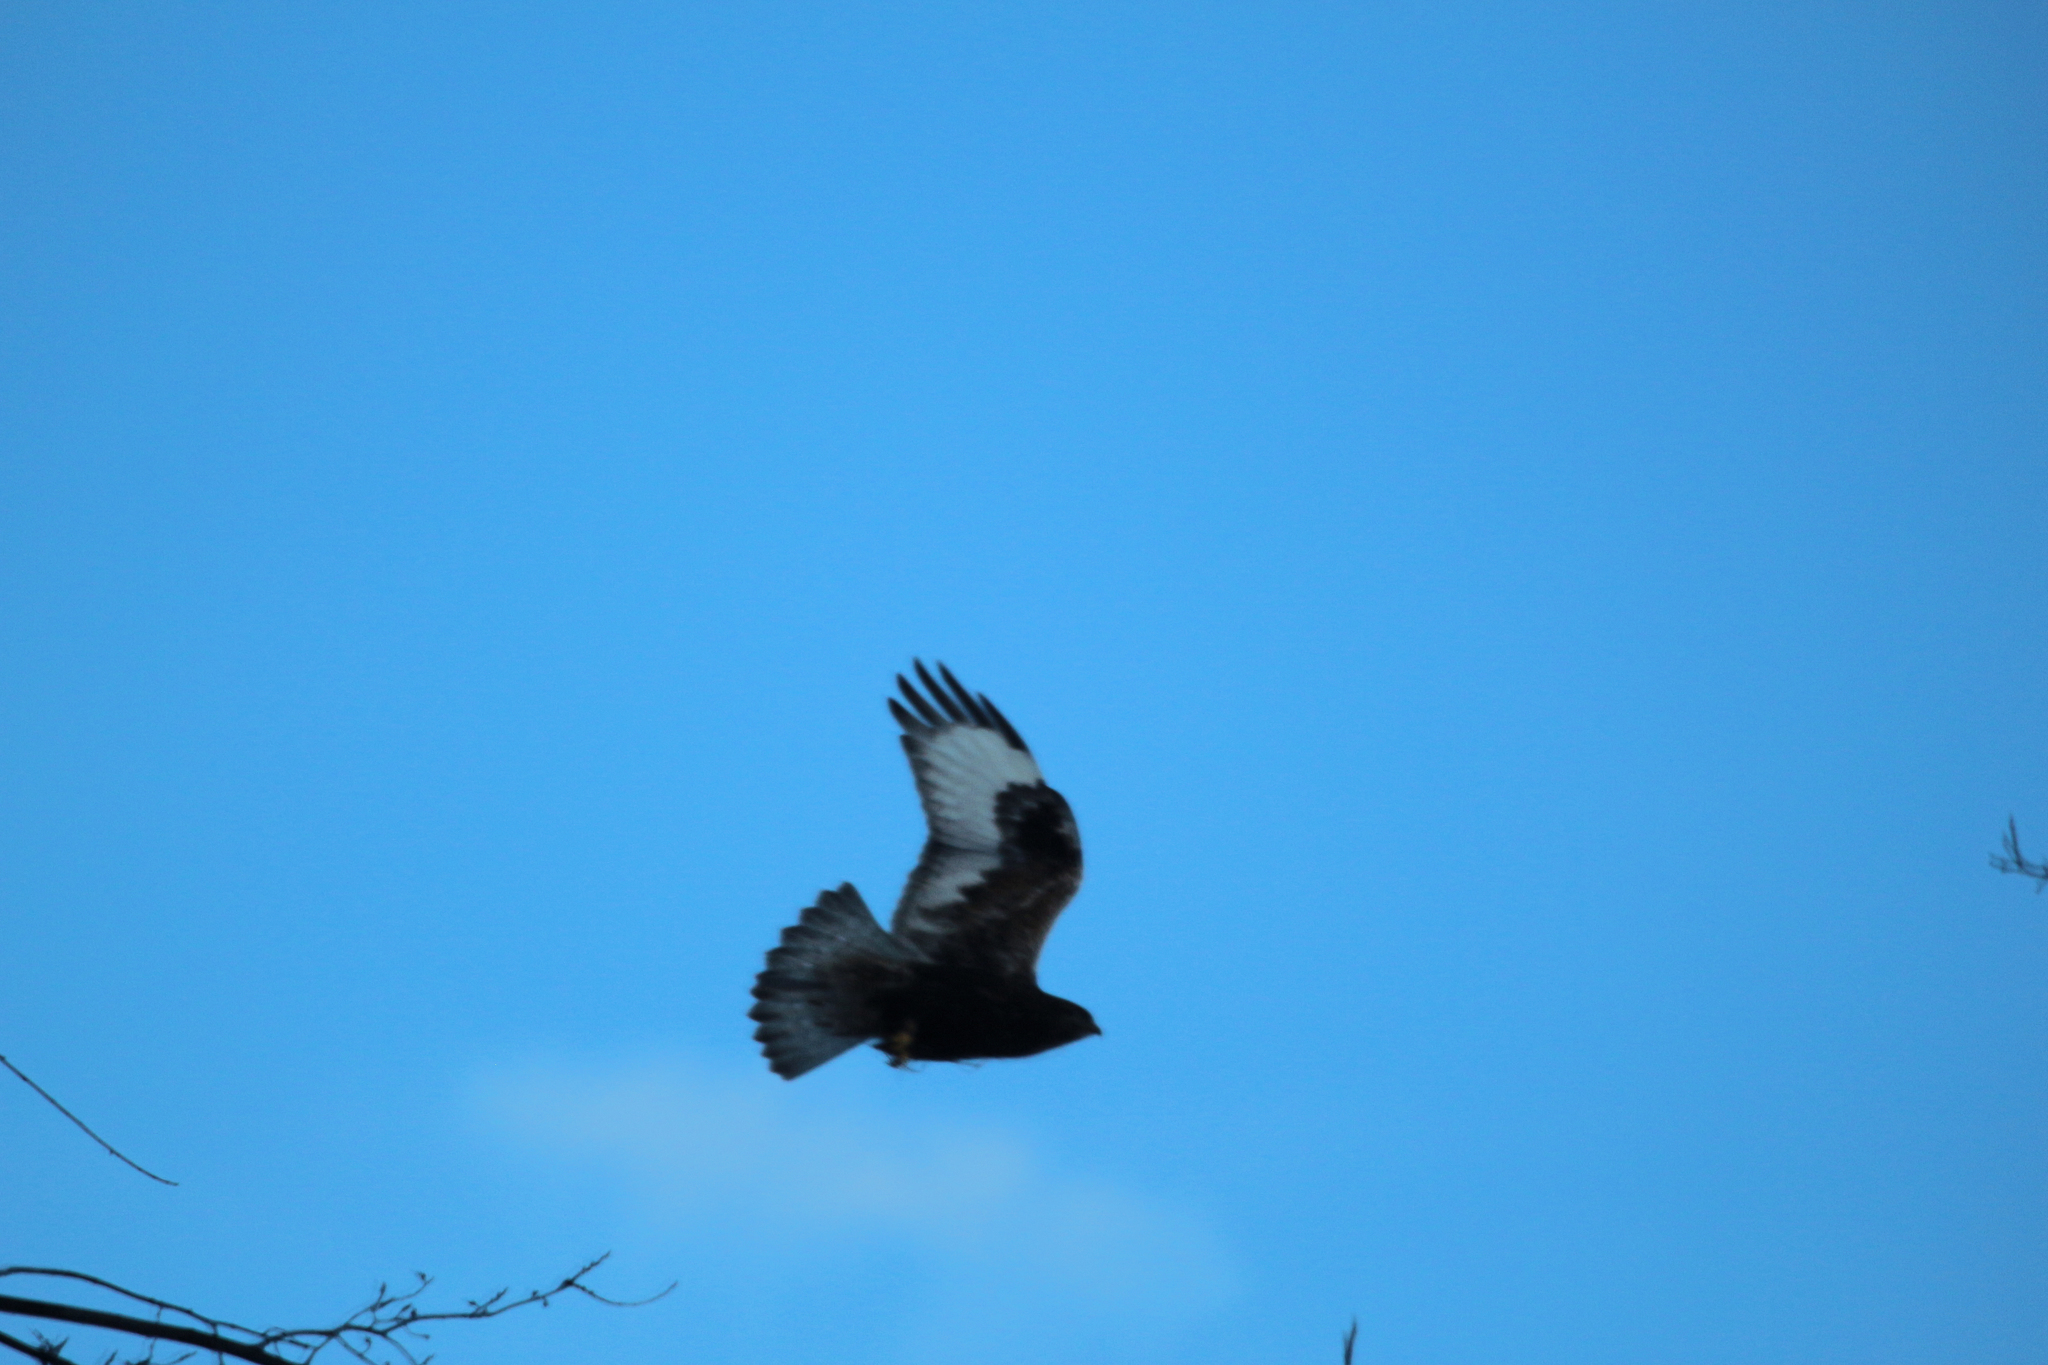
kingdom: Animalia
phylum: Chordata
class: Aves
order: Accipitriformes
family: Accipitridae
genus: Buteo
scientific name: Buteo lagopus
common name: Rough-legged buzzard
